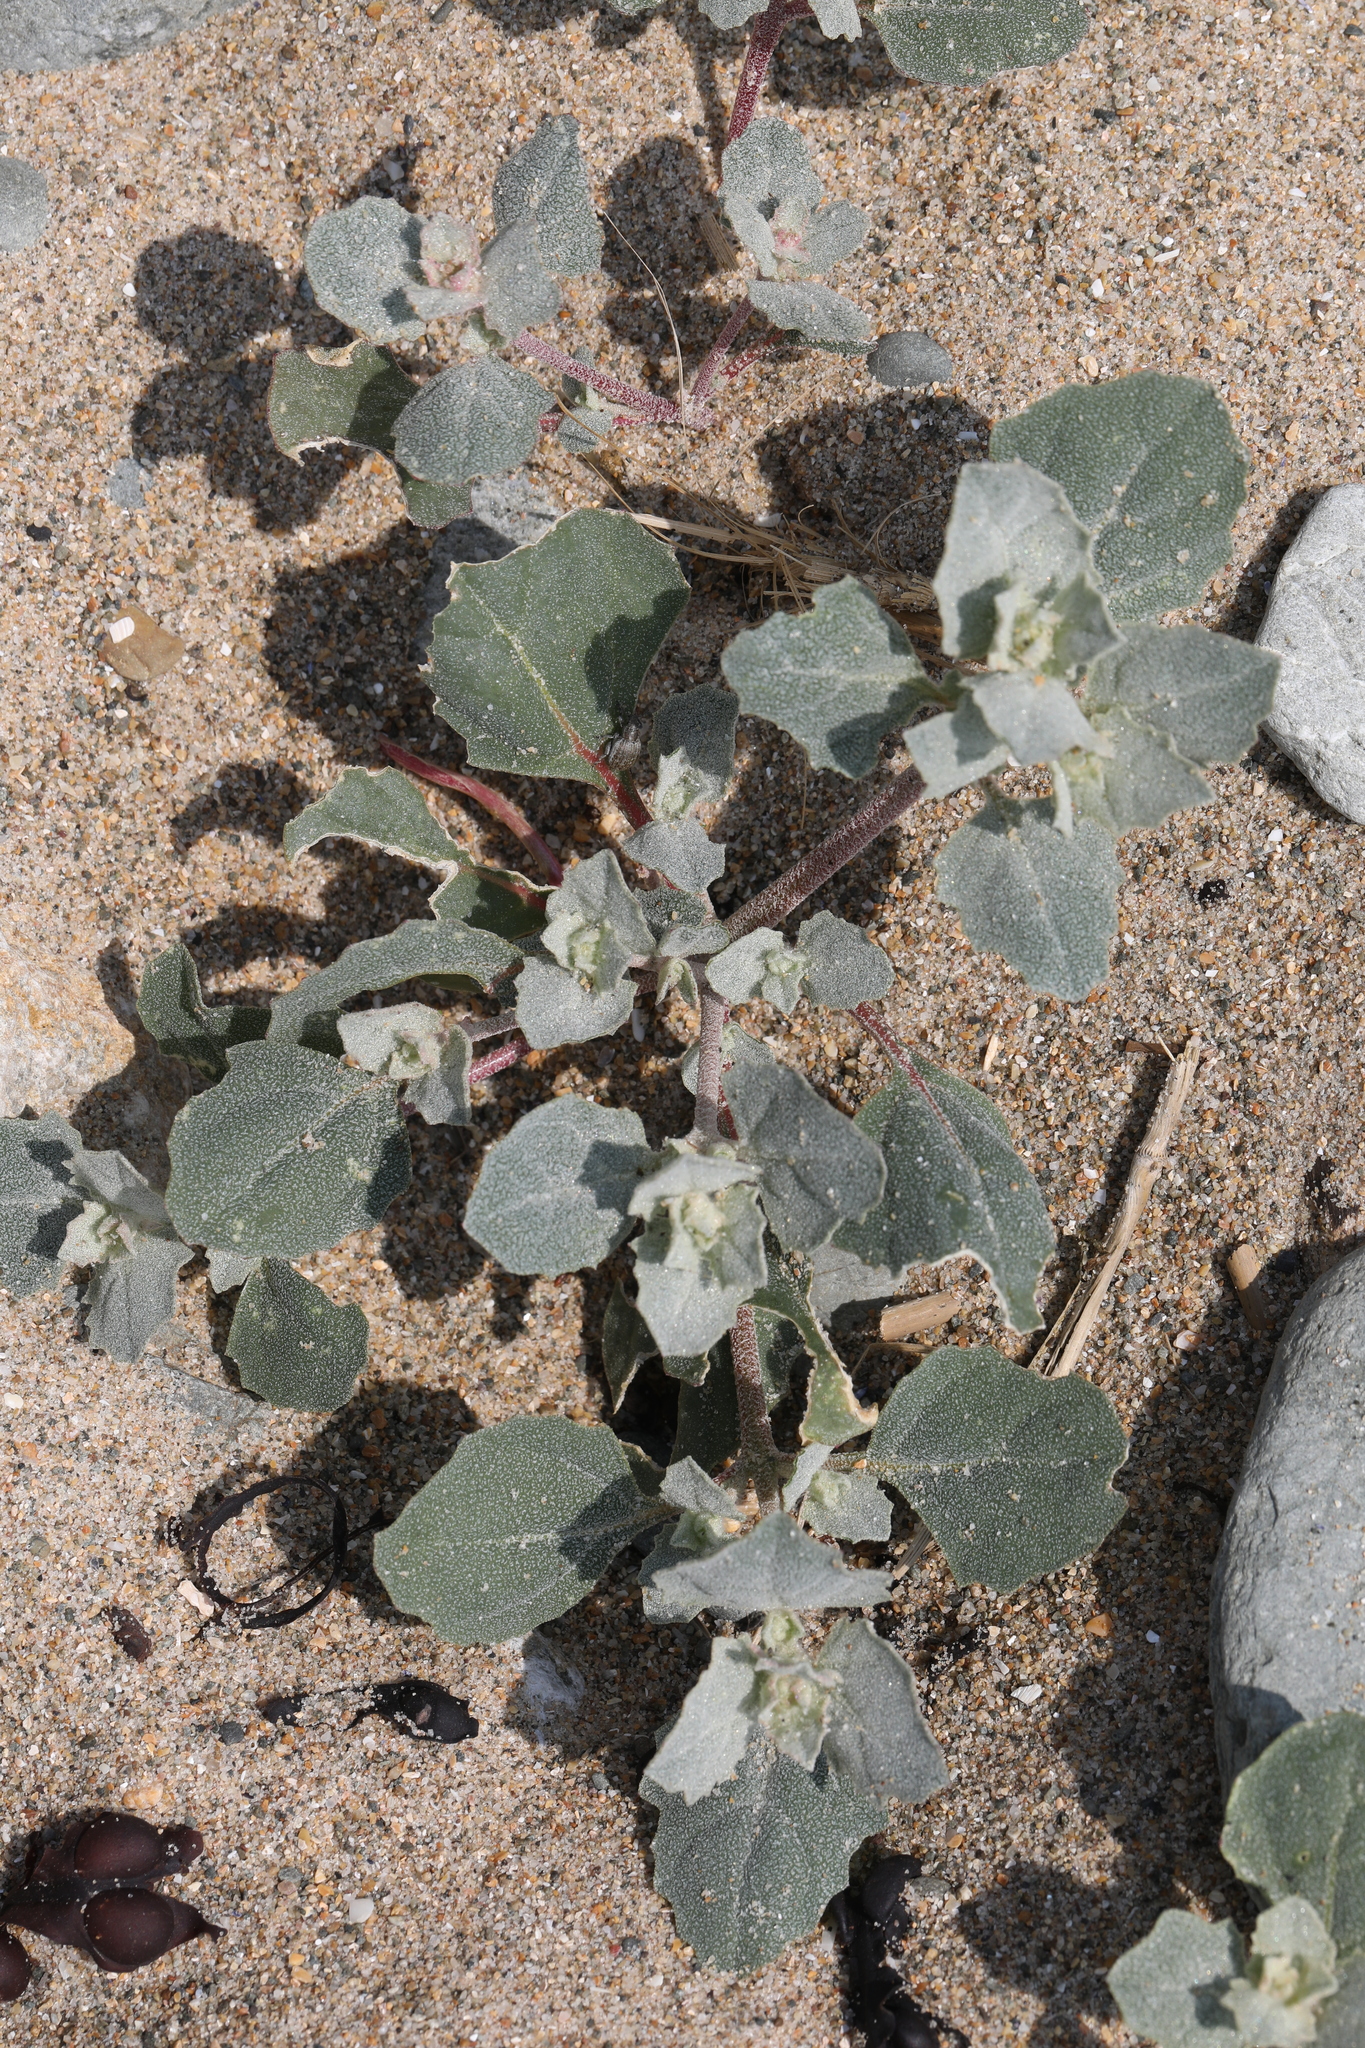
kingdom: Plantae
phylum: Tracheophyta
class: Magnoliopsida
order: Caryophyllales
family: Amaranthaceae
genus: Atriplex
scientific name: Atriplex laciniata
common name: Frosted orache
